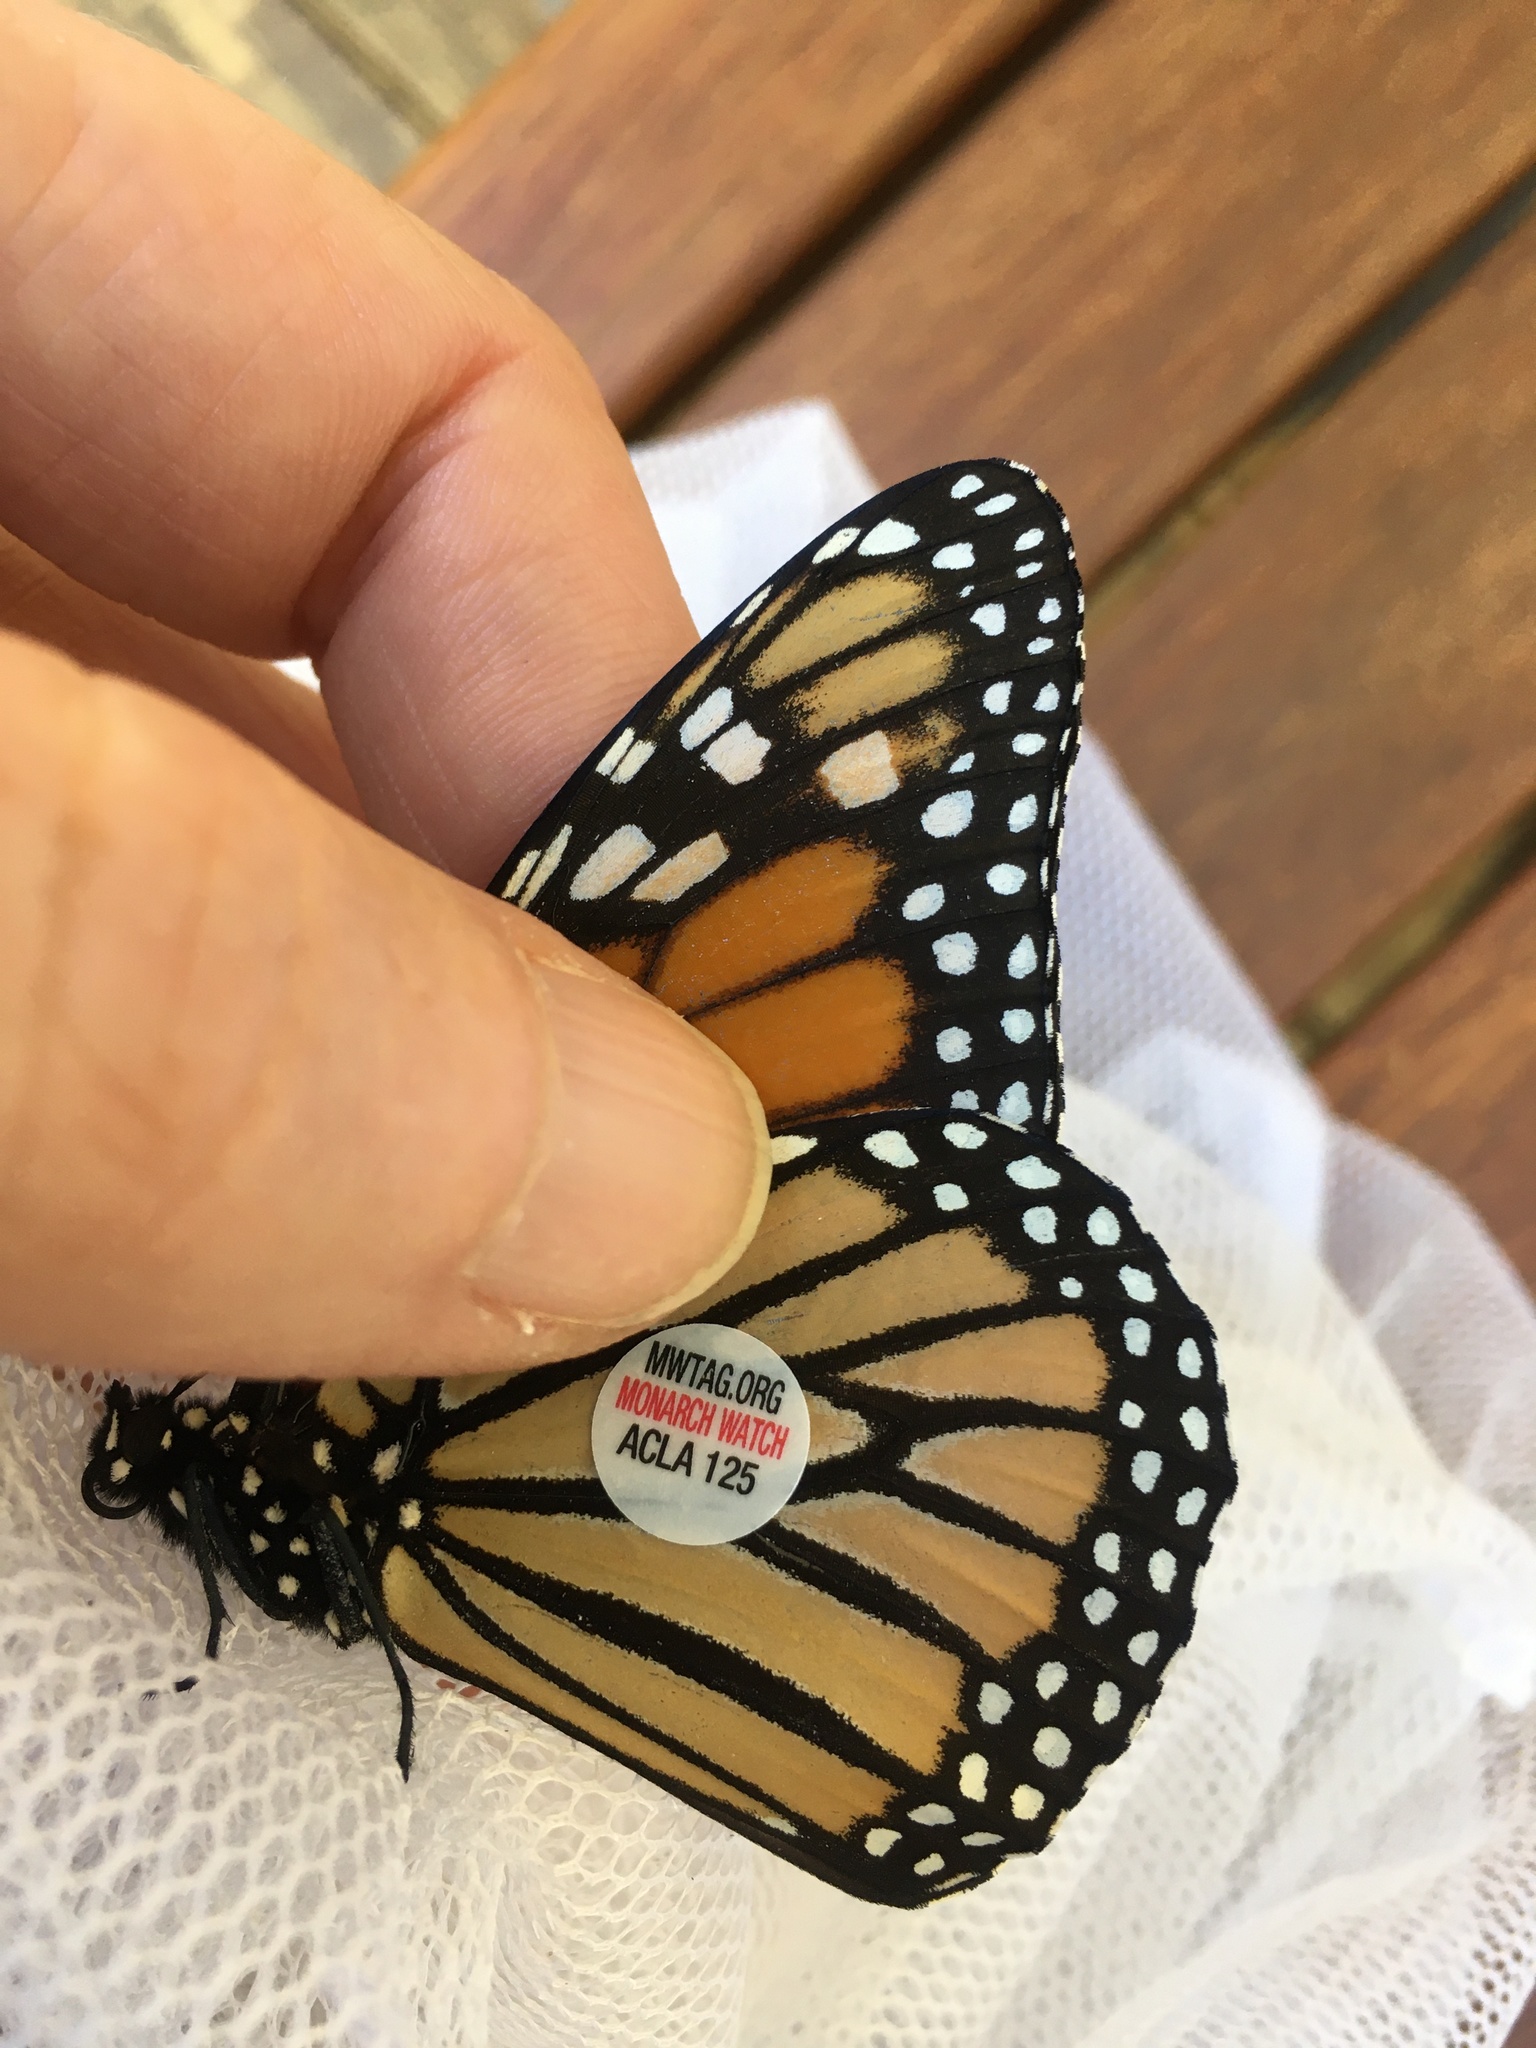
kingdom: Animalia
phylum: Arthropoda
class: Insecta
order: Lepidoptera
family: Nymphalidae
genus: Danaus
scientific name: Danaus plexippus
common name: Monarch
